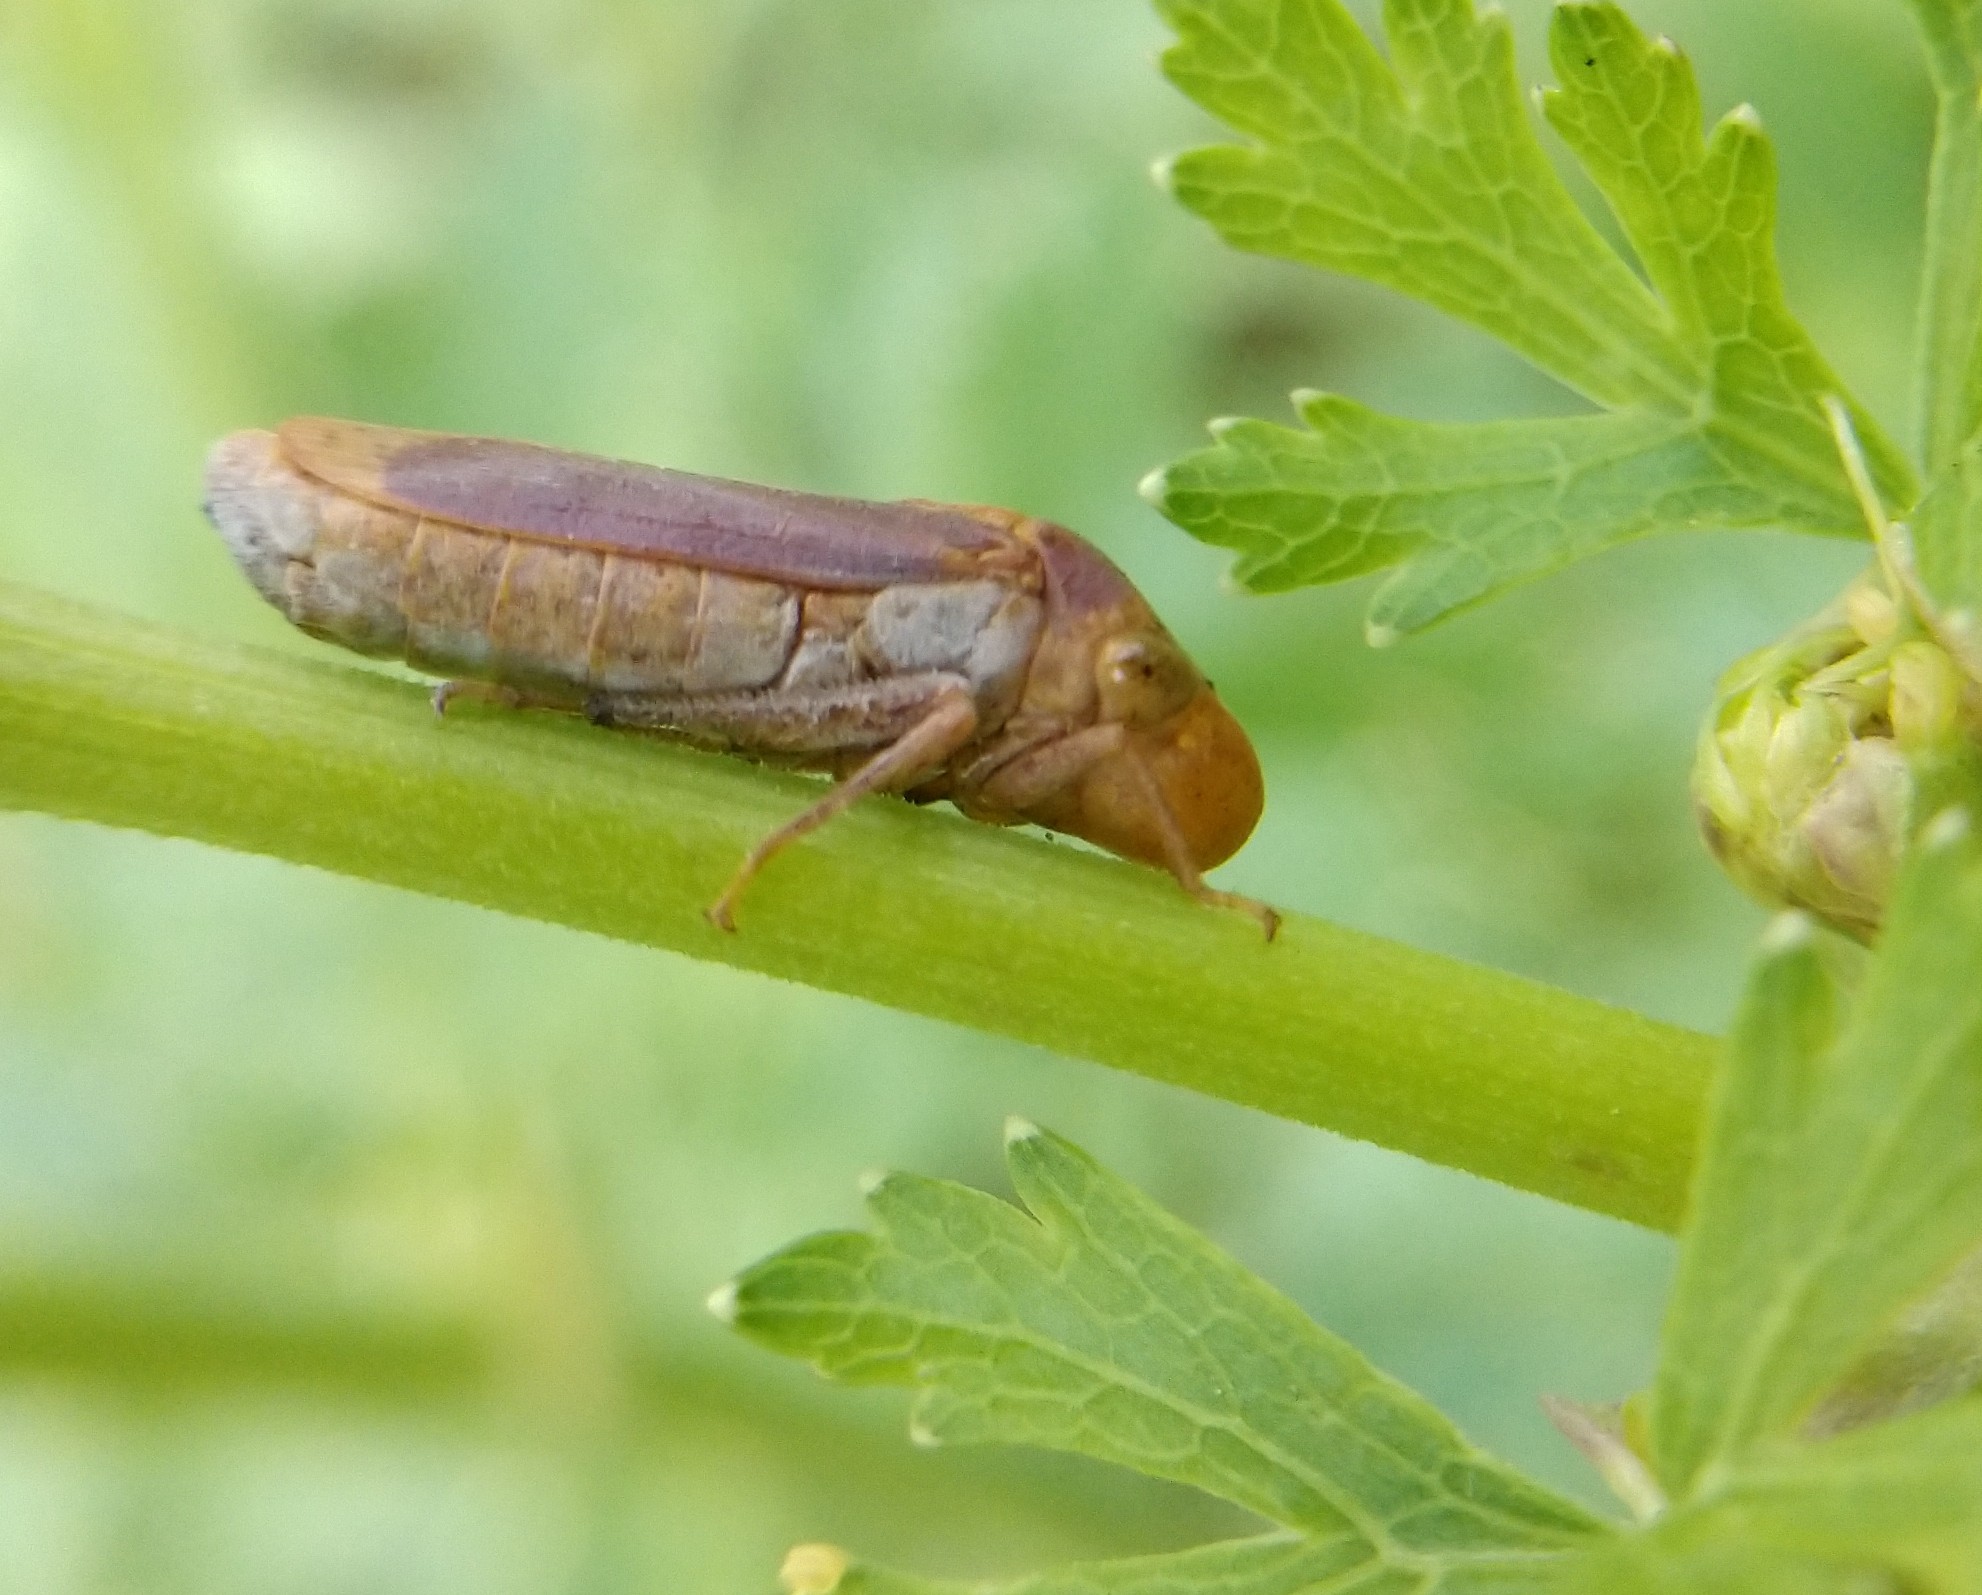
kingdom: Animalia
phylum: Arthropoda
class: Insecta
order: Hemiptera
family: Cicadellidae
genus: Oncometopia
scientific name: Oncometopia hamiltoni
